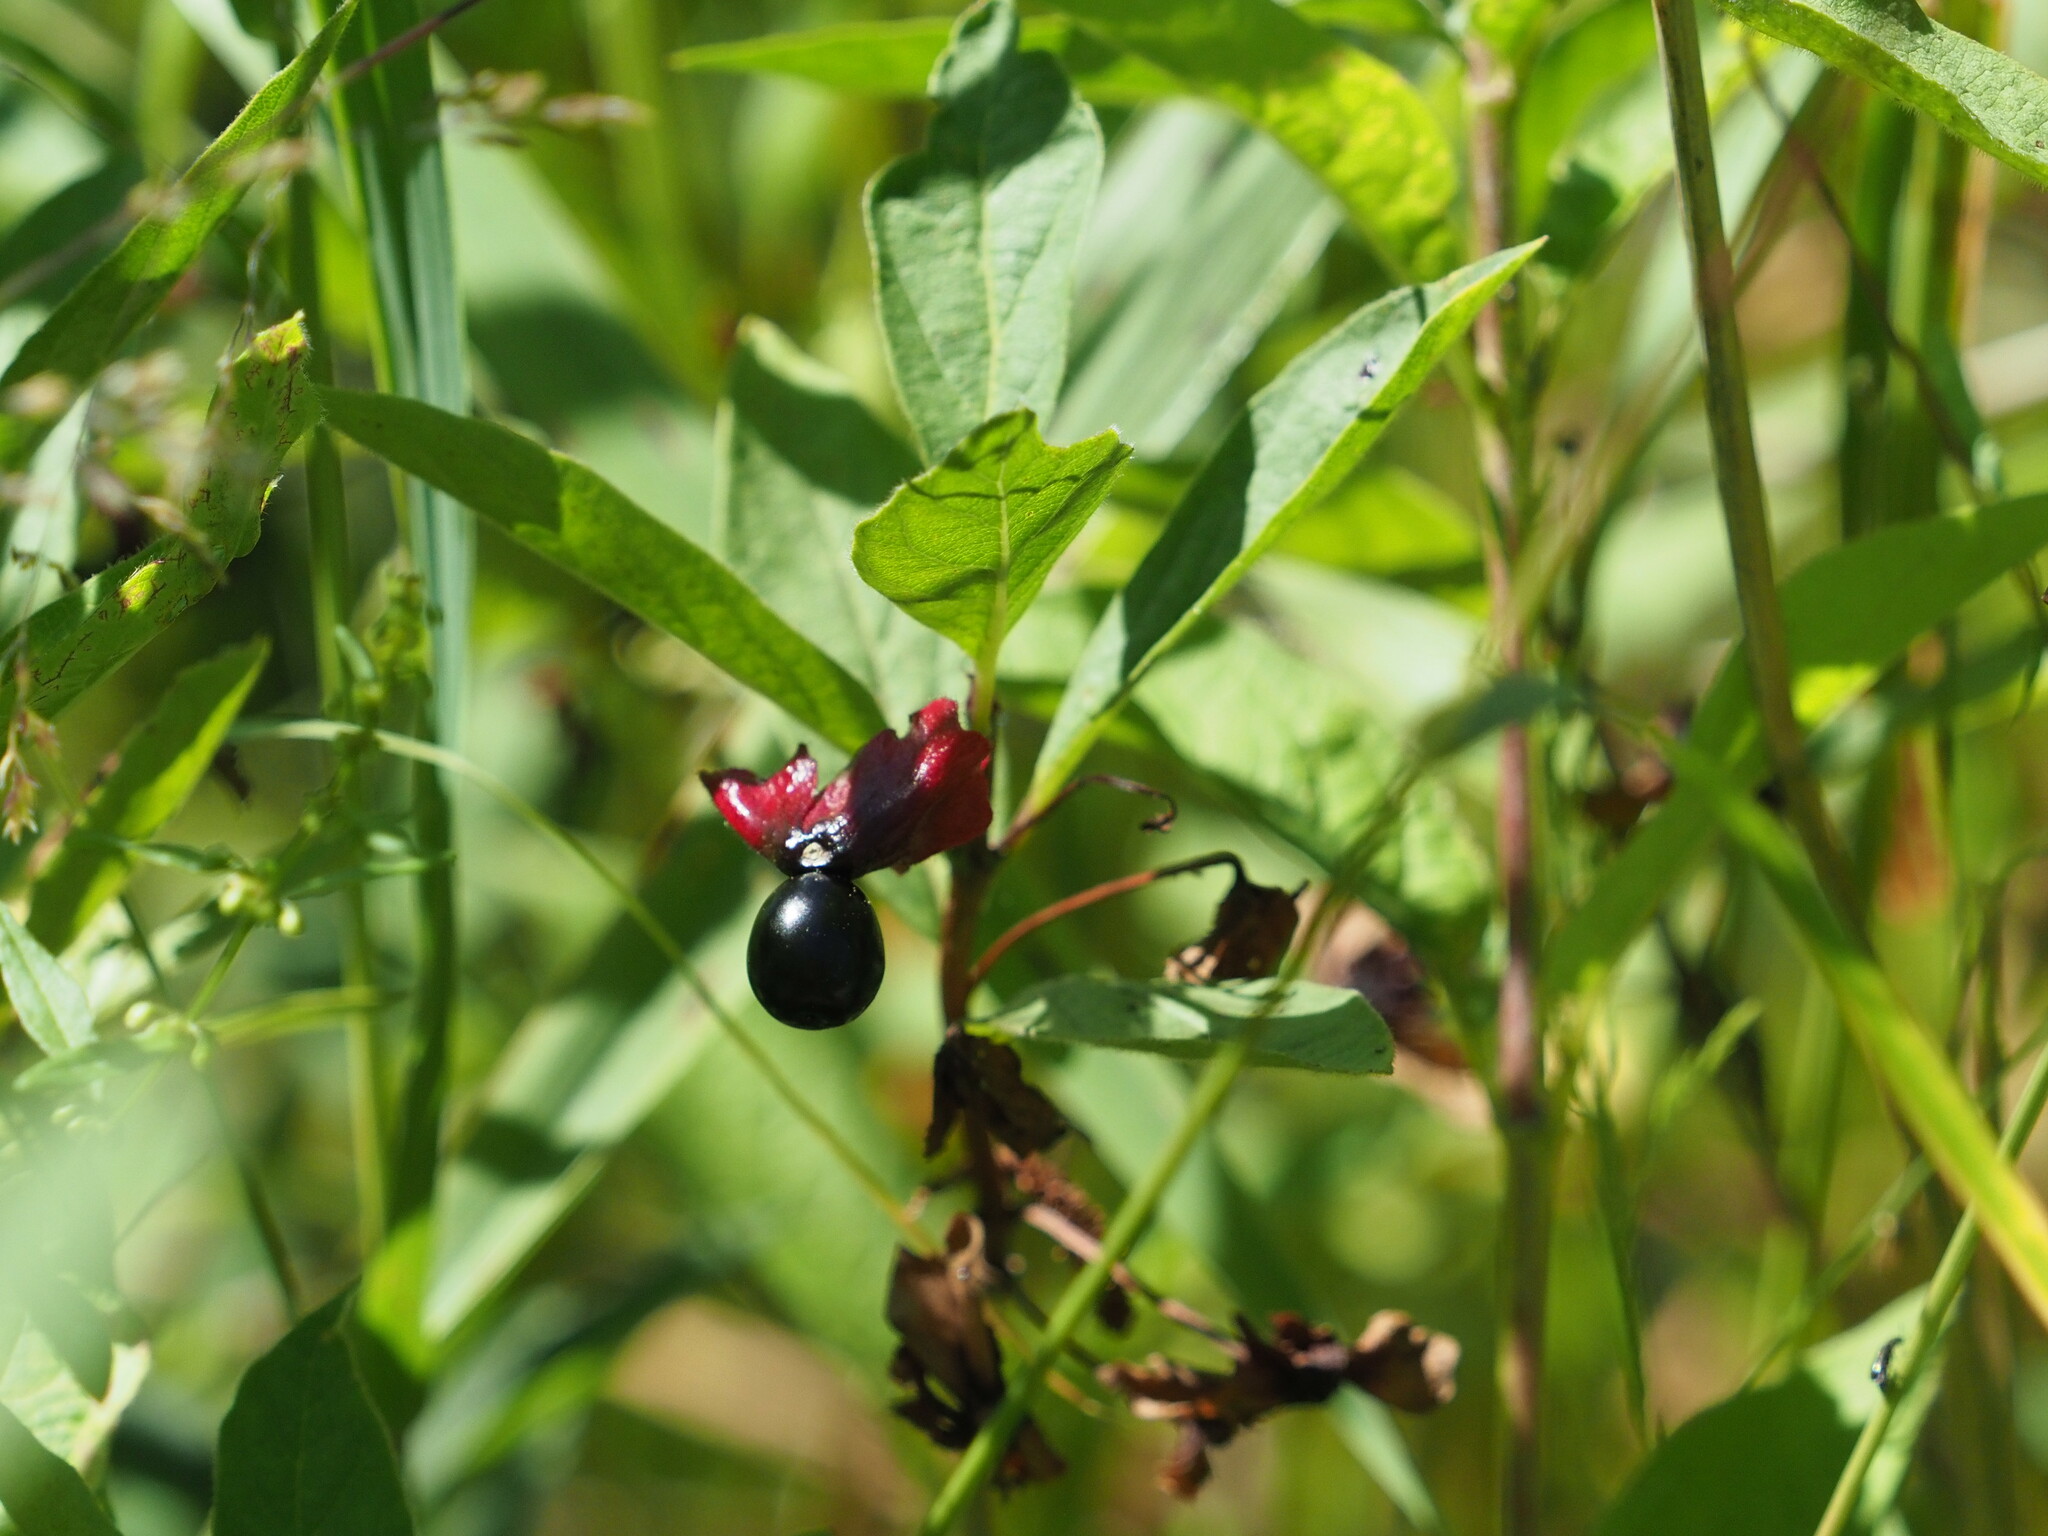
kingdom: Plantae
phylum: Tracheophyta
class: Magnoliopsida
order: Dipsacales
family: Caprifoliaceae
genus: Lonicera
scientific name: Lonicera involucrata
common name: Californian honeysuckle
